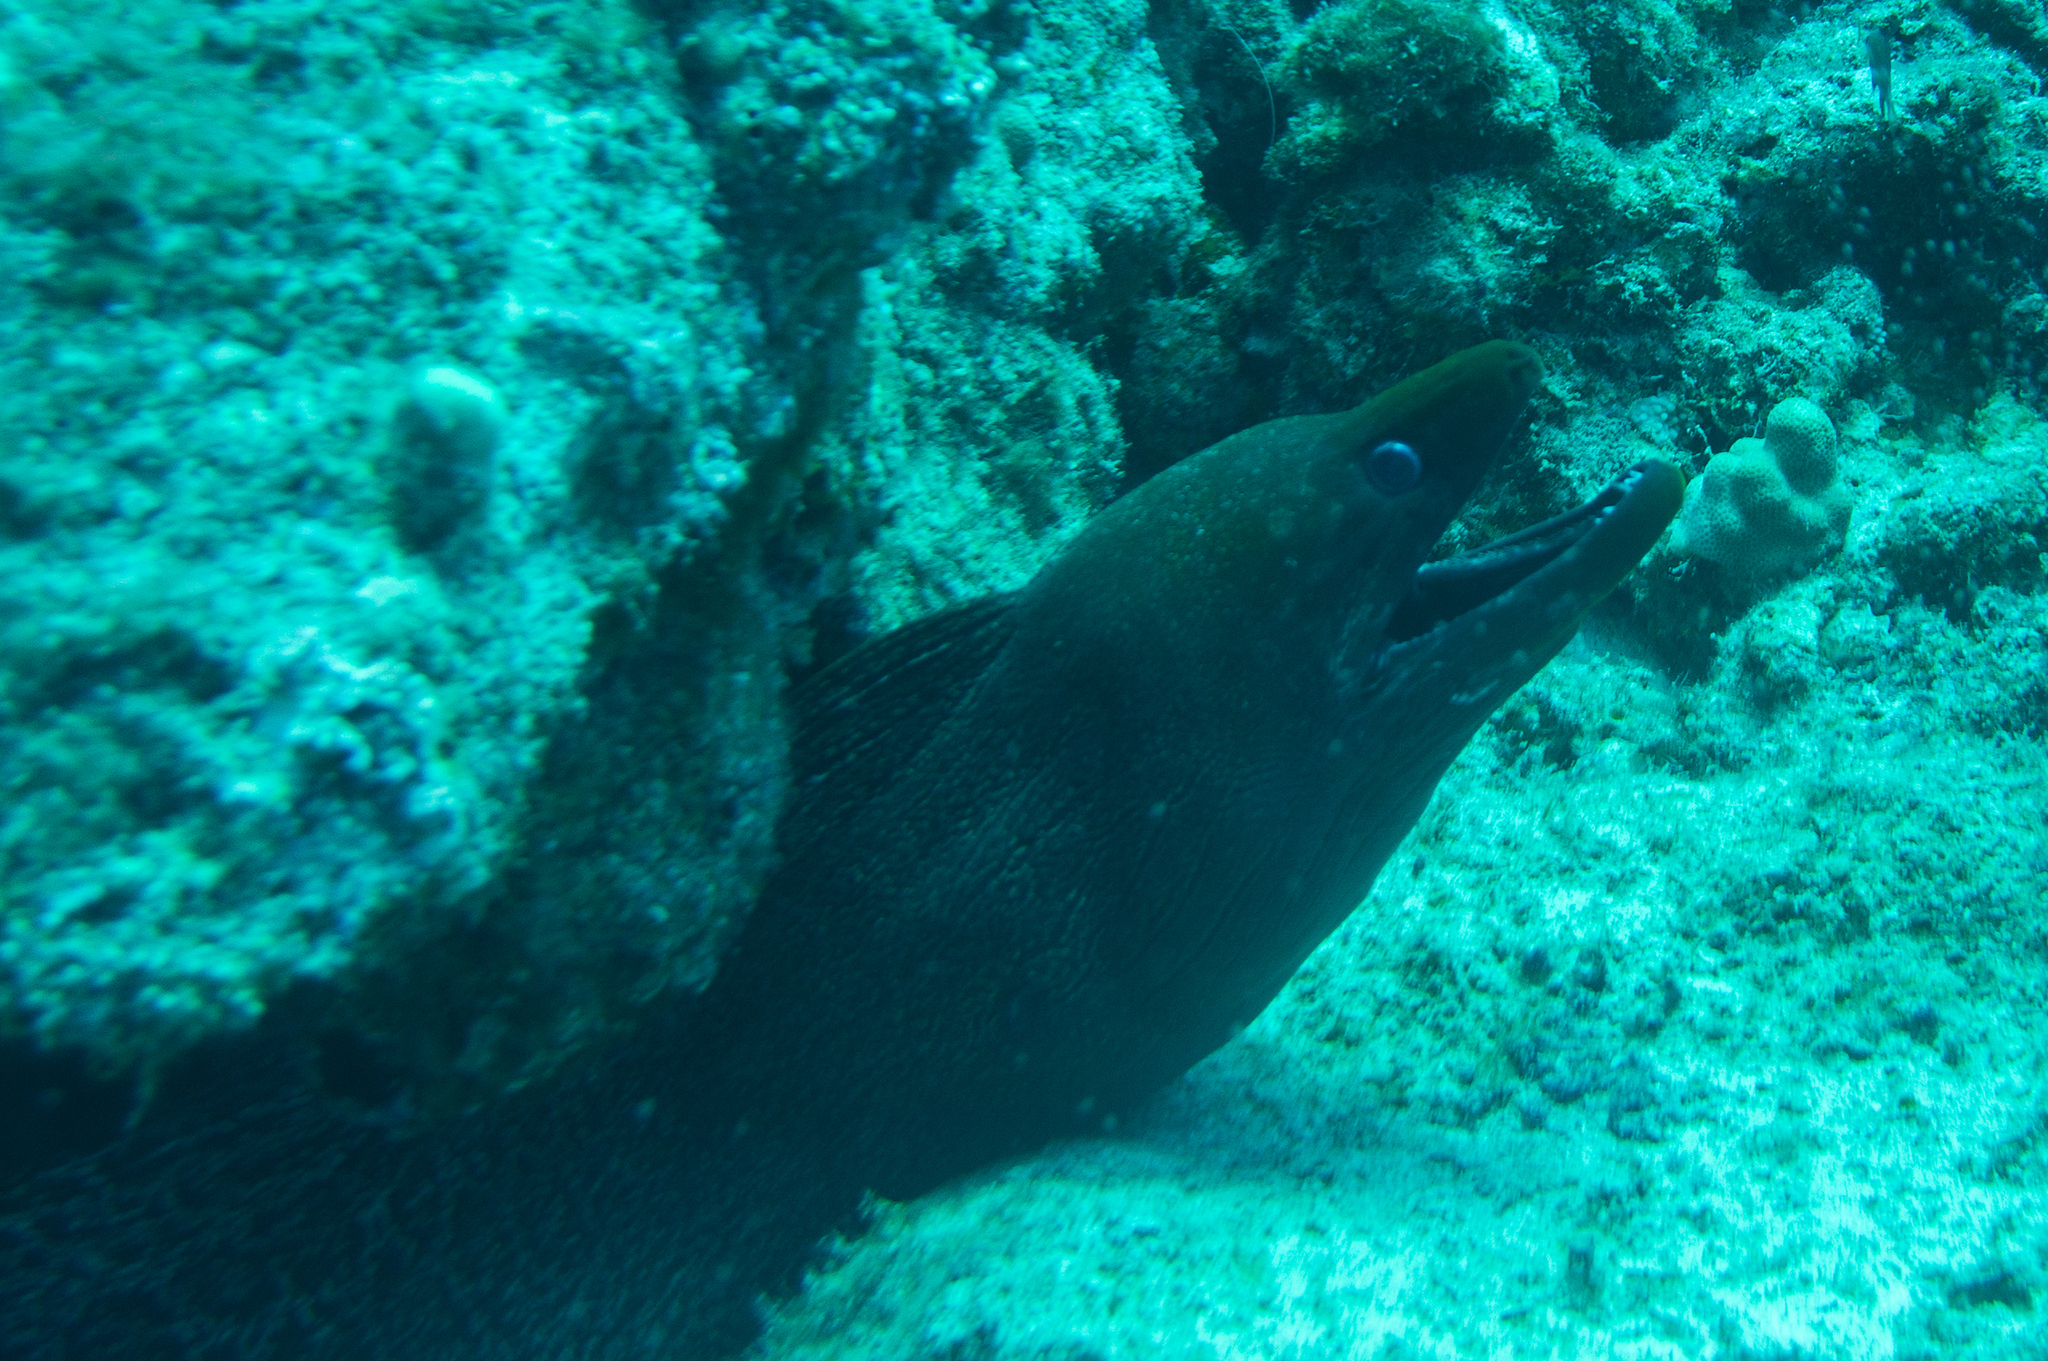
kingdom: Animalia
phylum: Chordata
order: Anguilliformes
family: Muraenidae
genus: Gymnothorax
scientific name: Gymnothorax undulatus
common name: Leopard moray
